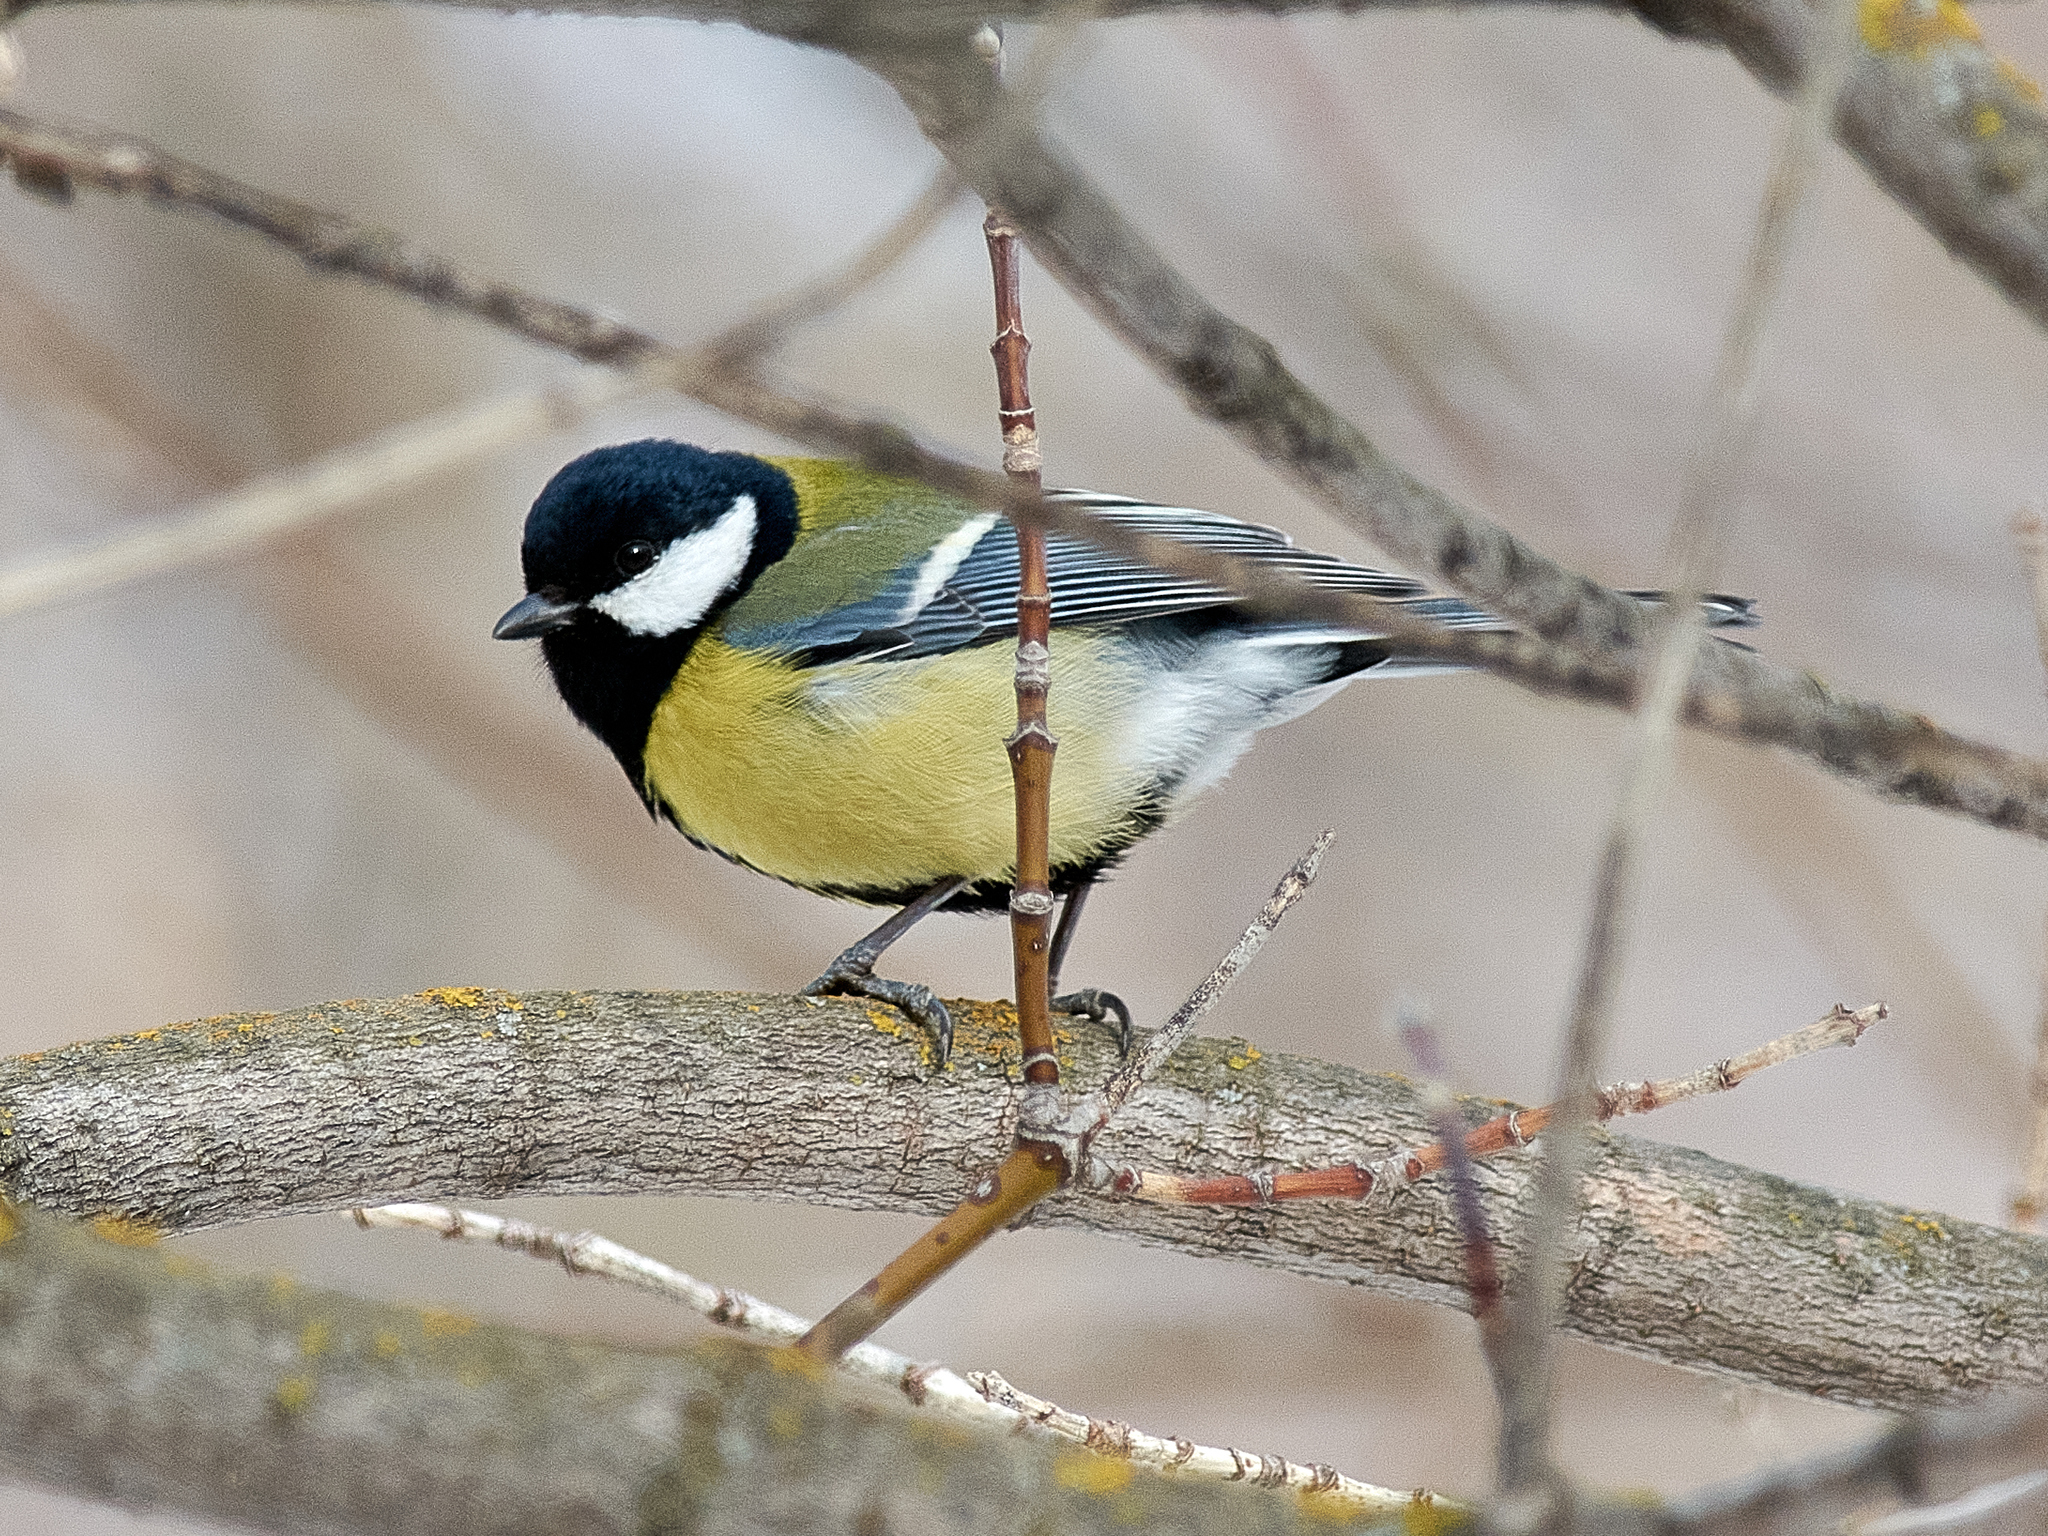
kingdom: Animalia
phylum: Chordata
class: Aves
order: Passeriformes
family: Paridae
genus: Parus
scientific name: Parus major
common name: Great tit
